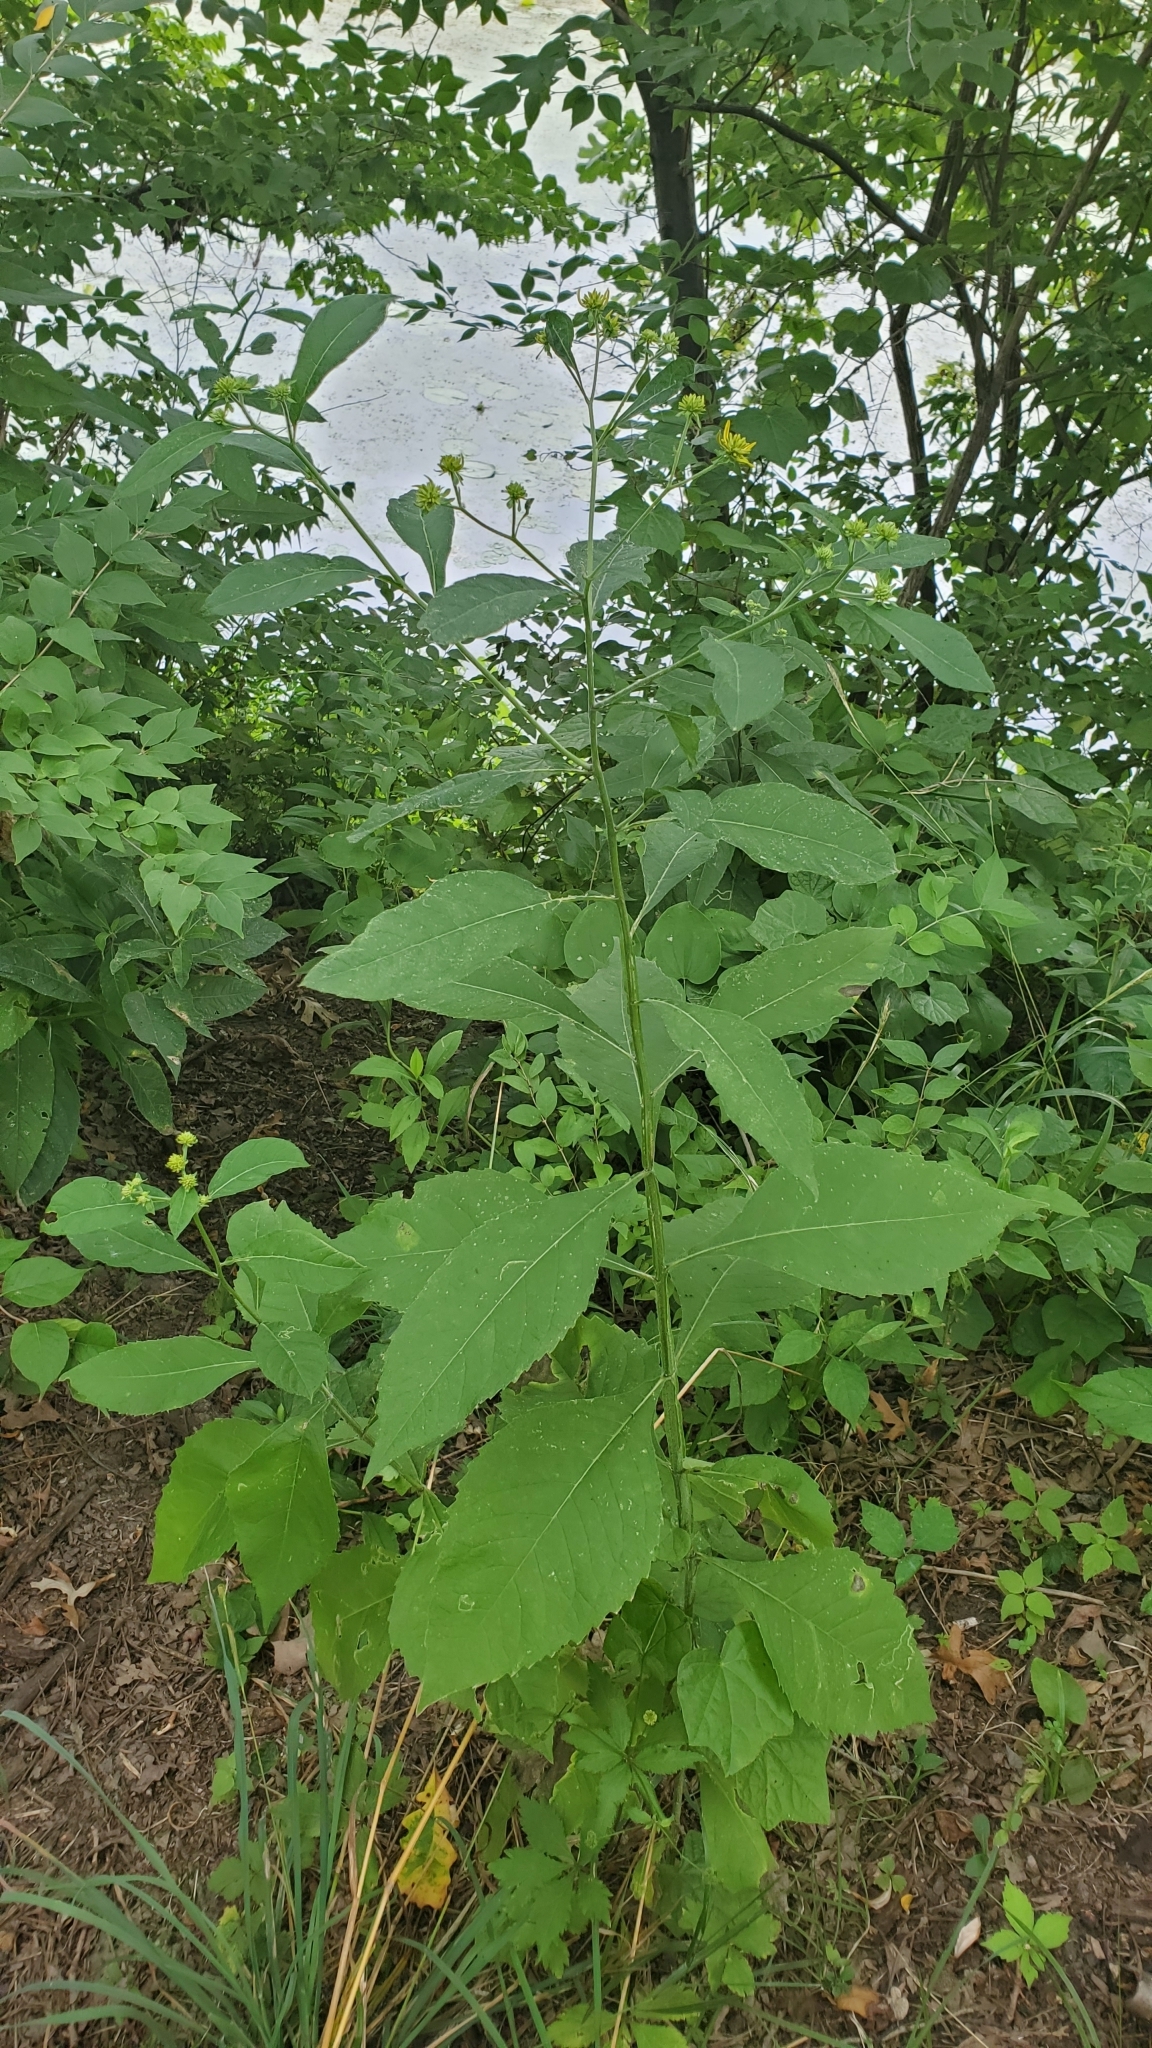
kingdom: Plantae
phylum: Tracheophyta
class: Magnoliopsida
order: Asterales
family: Asteraceae
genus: Verbesina
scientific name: Verbesina alternifolia
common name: Wingstem
